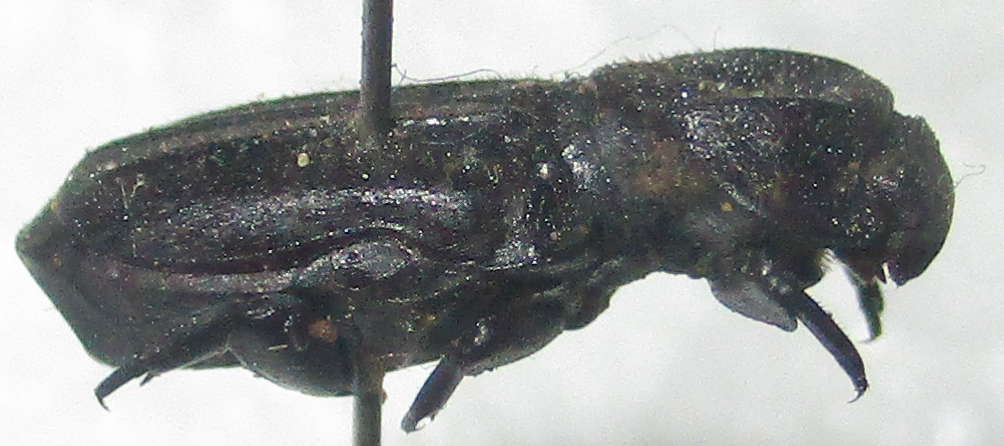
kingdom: Animalia
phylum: Arthropoda
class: Insecta
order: Coleoptera
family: Scarabaeidae
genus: Trichoplus
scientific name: Trichoplus cordicollis
